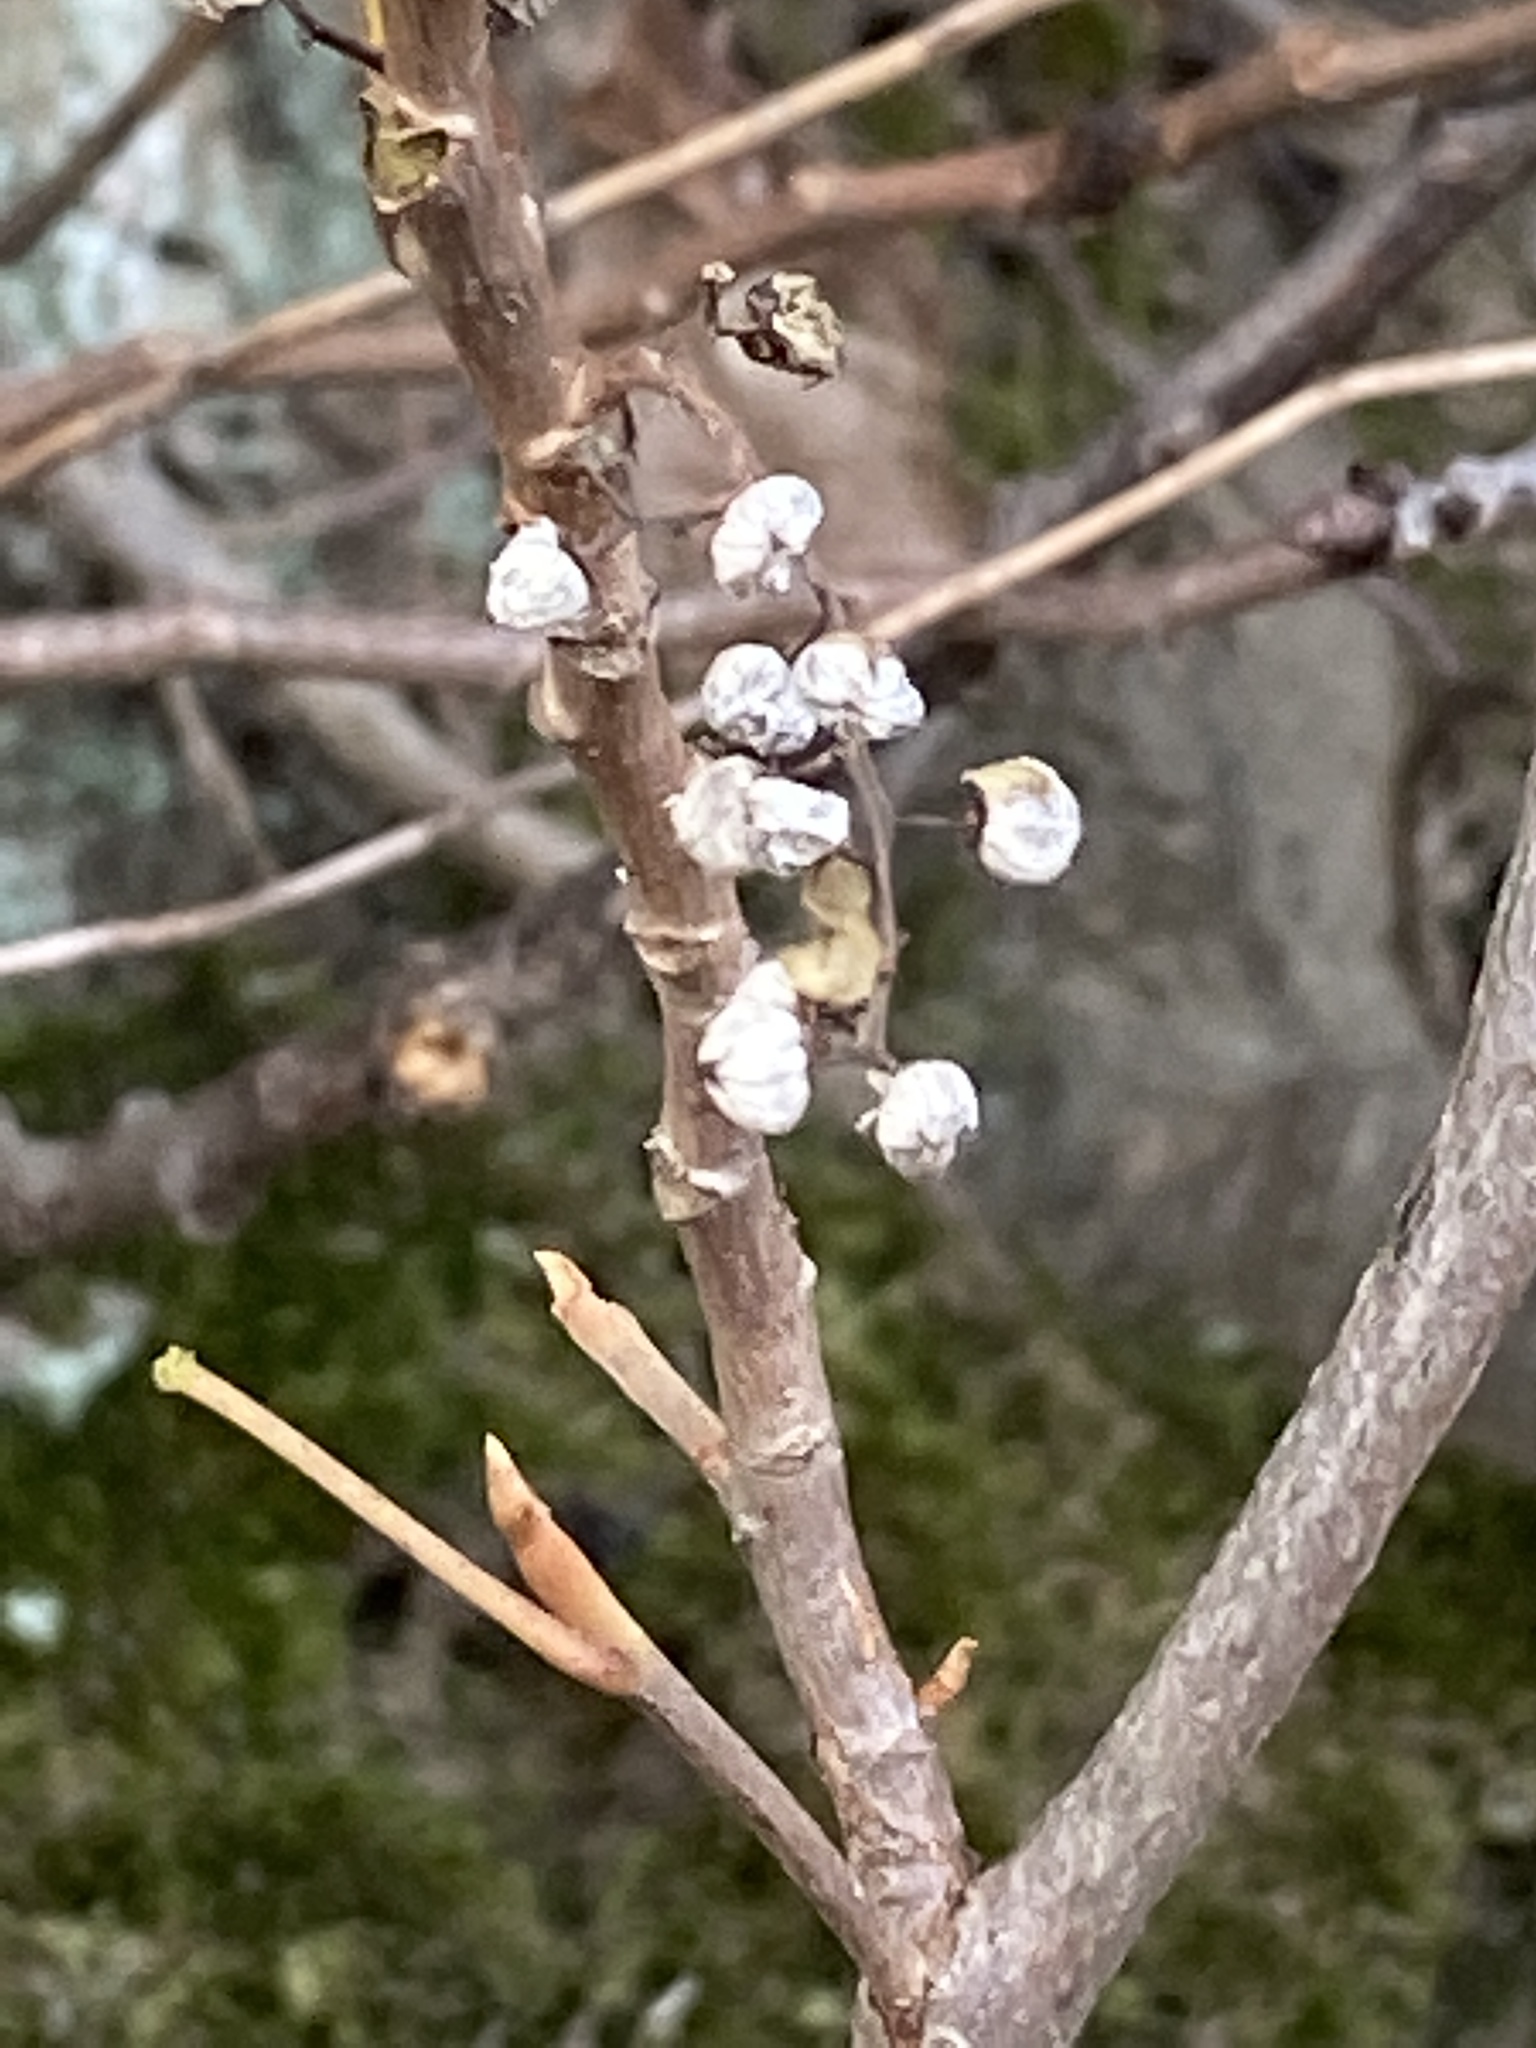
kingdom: Plantae
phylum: Tracheophyta
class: Magnoliopsida
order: Sapindales
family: Anacardiaceae
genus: Toxicodendron
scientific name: Toxicodendron radicans
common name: Poison ivy
